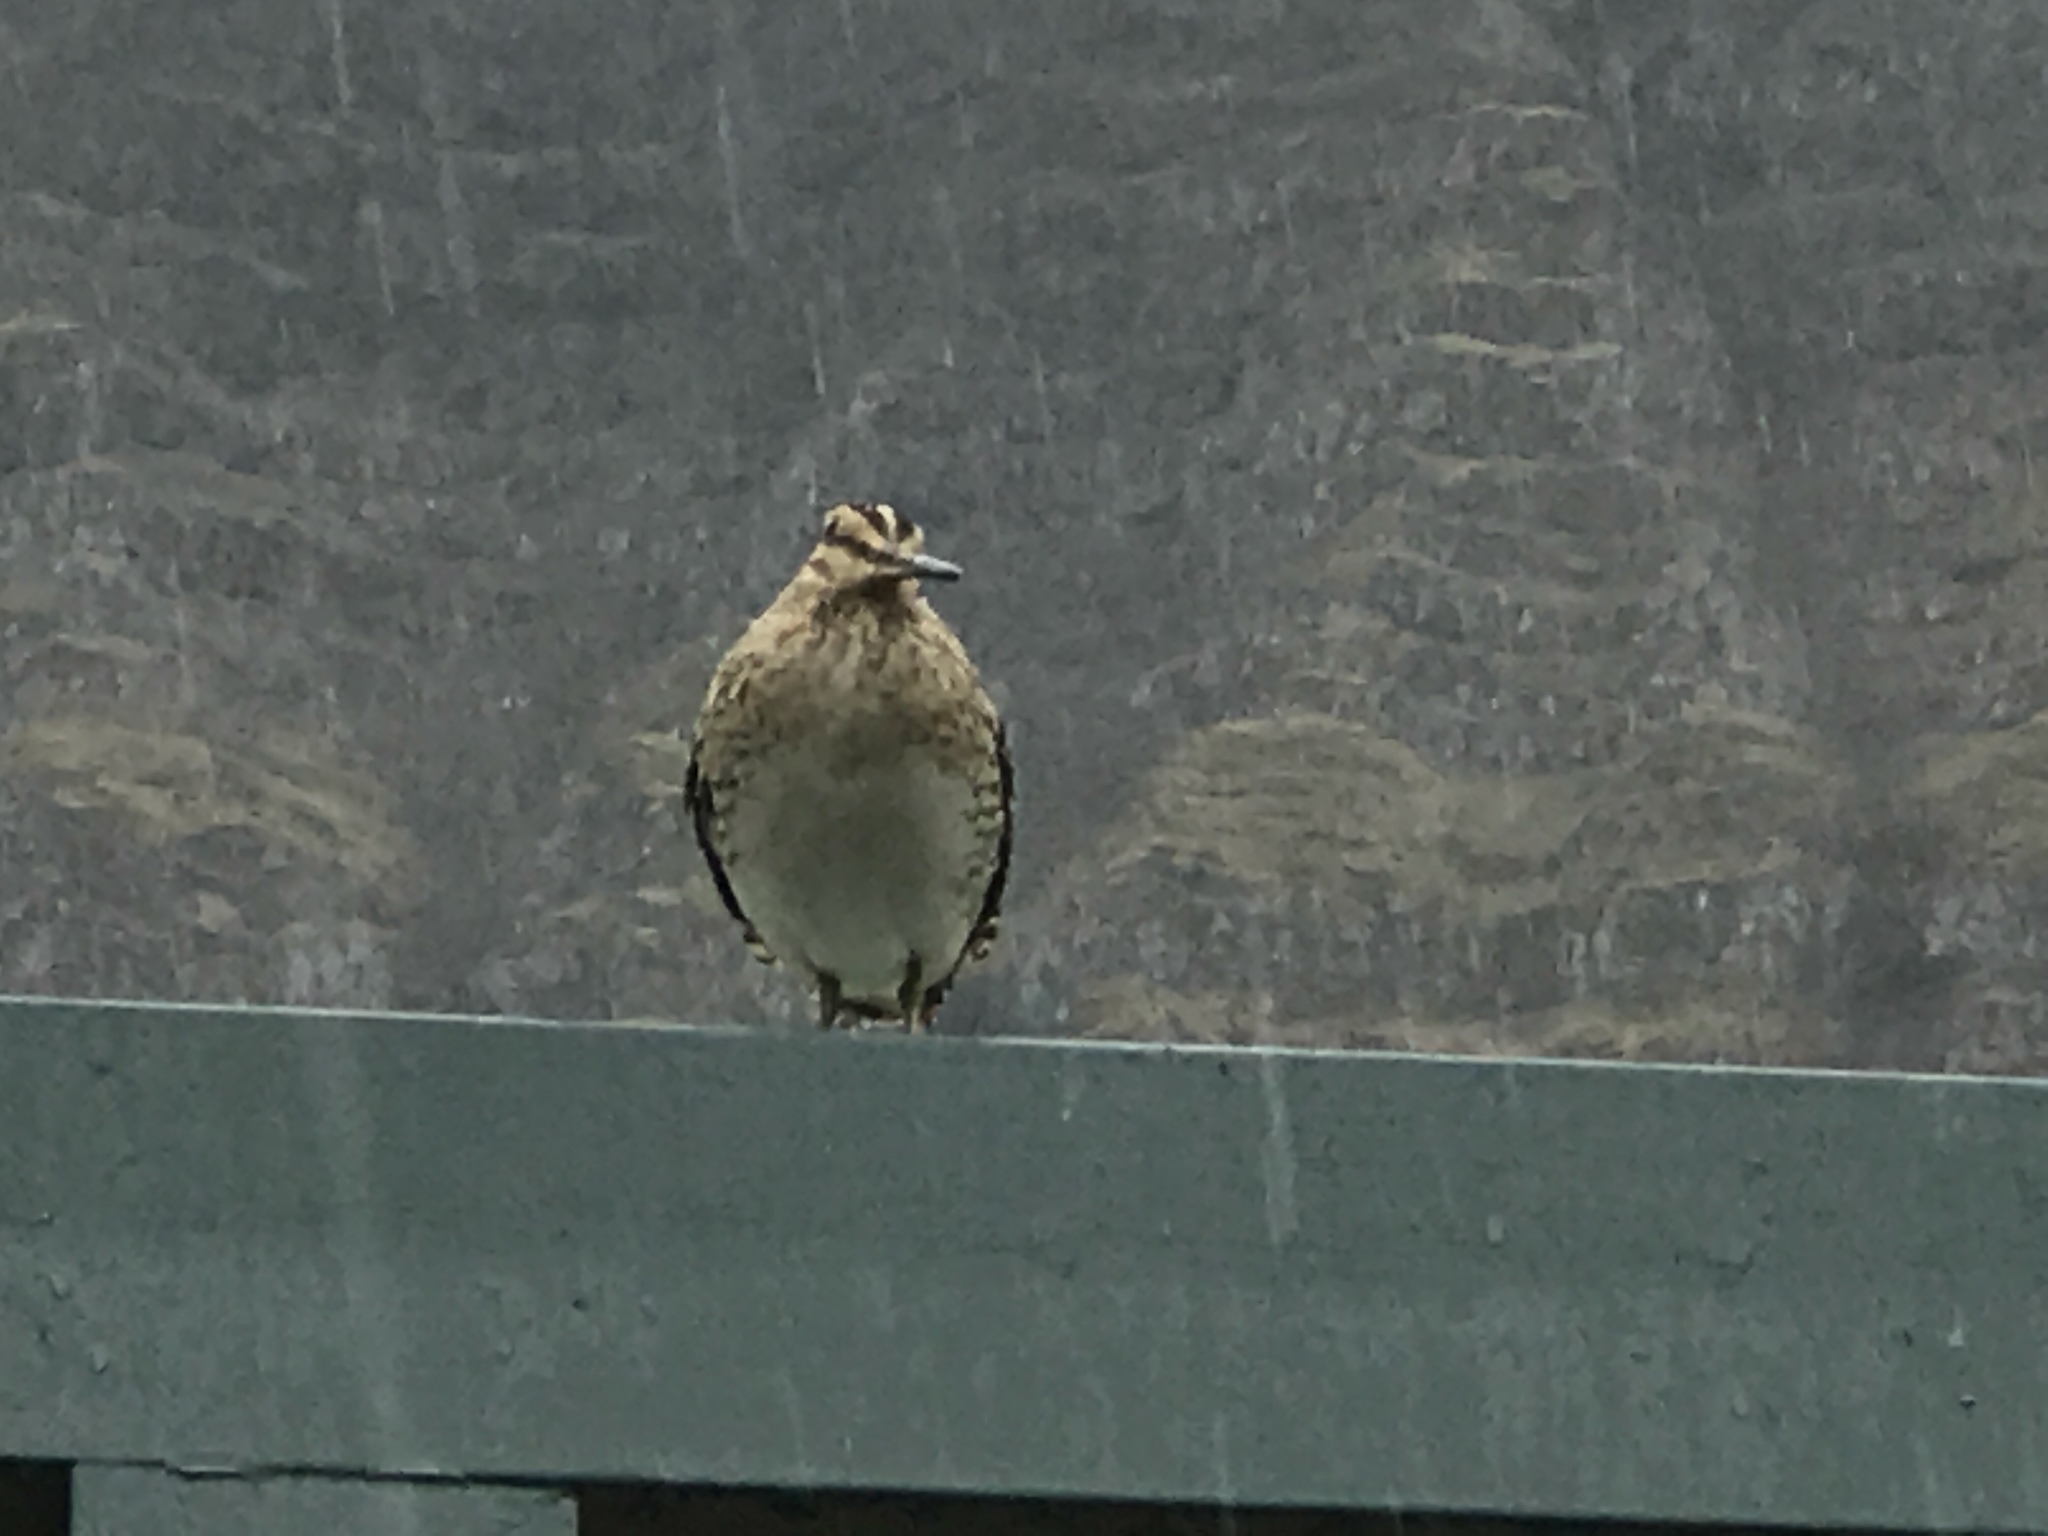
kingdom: Animalia
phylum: Chordata
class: Aves
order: Charadriiformes
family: Scolopacidae
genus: Gallinago
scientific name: Gallinago gallinago
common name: Common snipe
